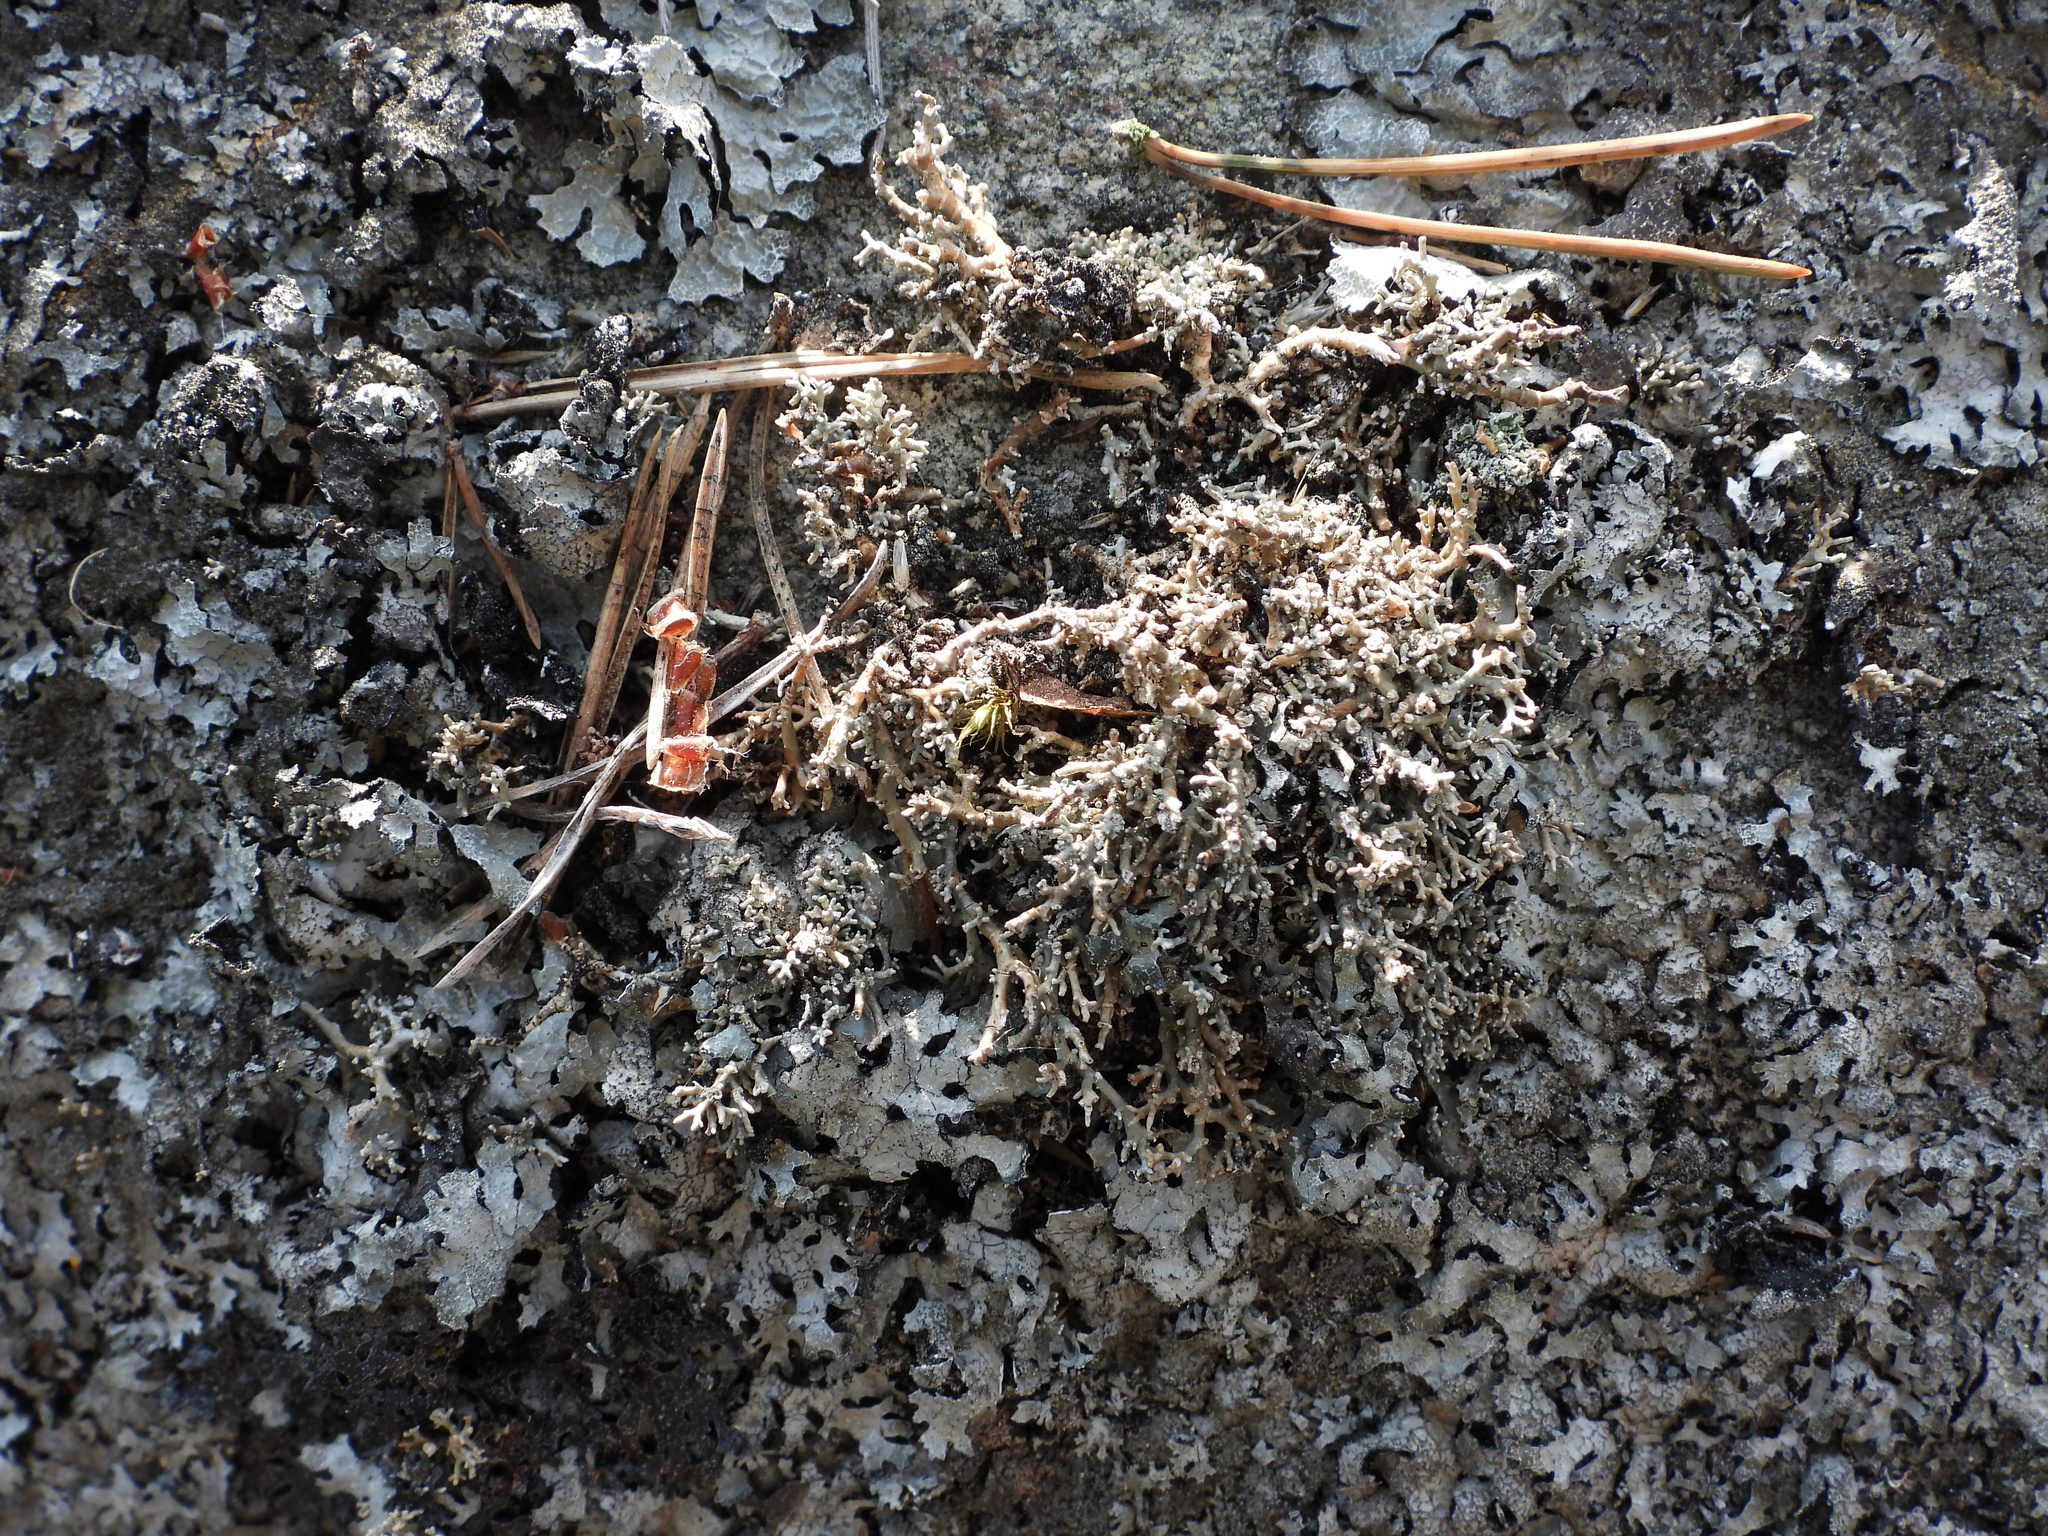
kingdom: Fungi
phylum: Ascomycota
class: Lecanoromycetes
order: Lecanorales
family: Sphaerophoraceae
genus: Sphaerophorus
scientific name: Sphaerophorus fragilis
